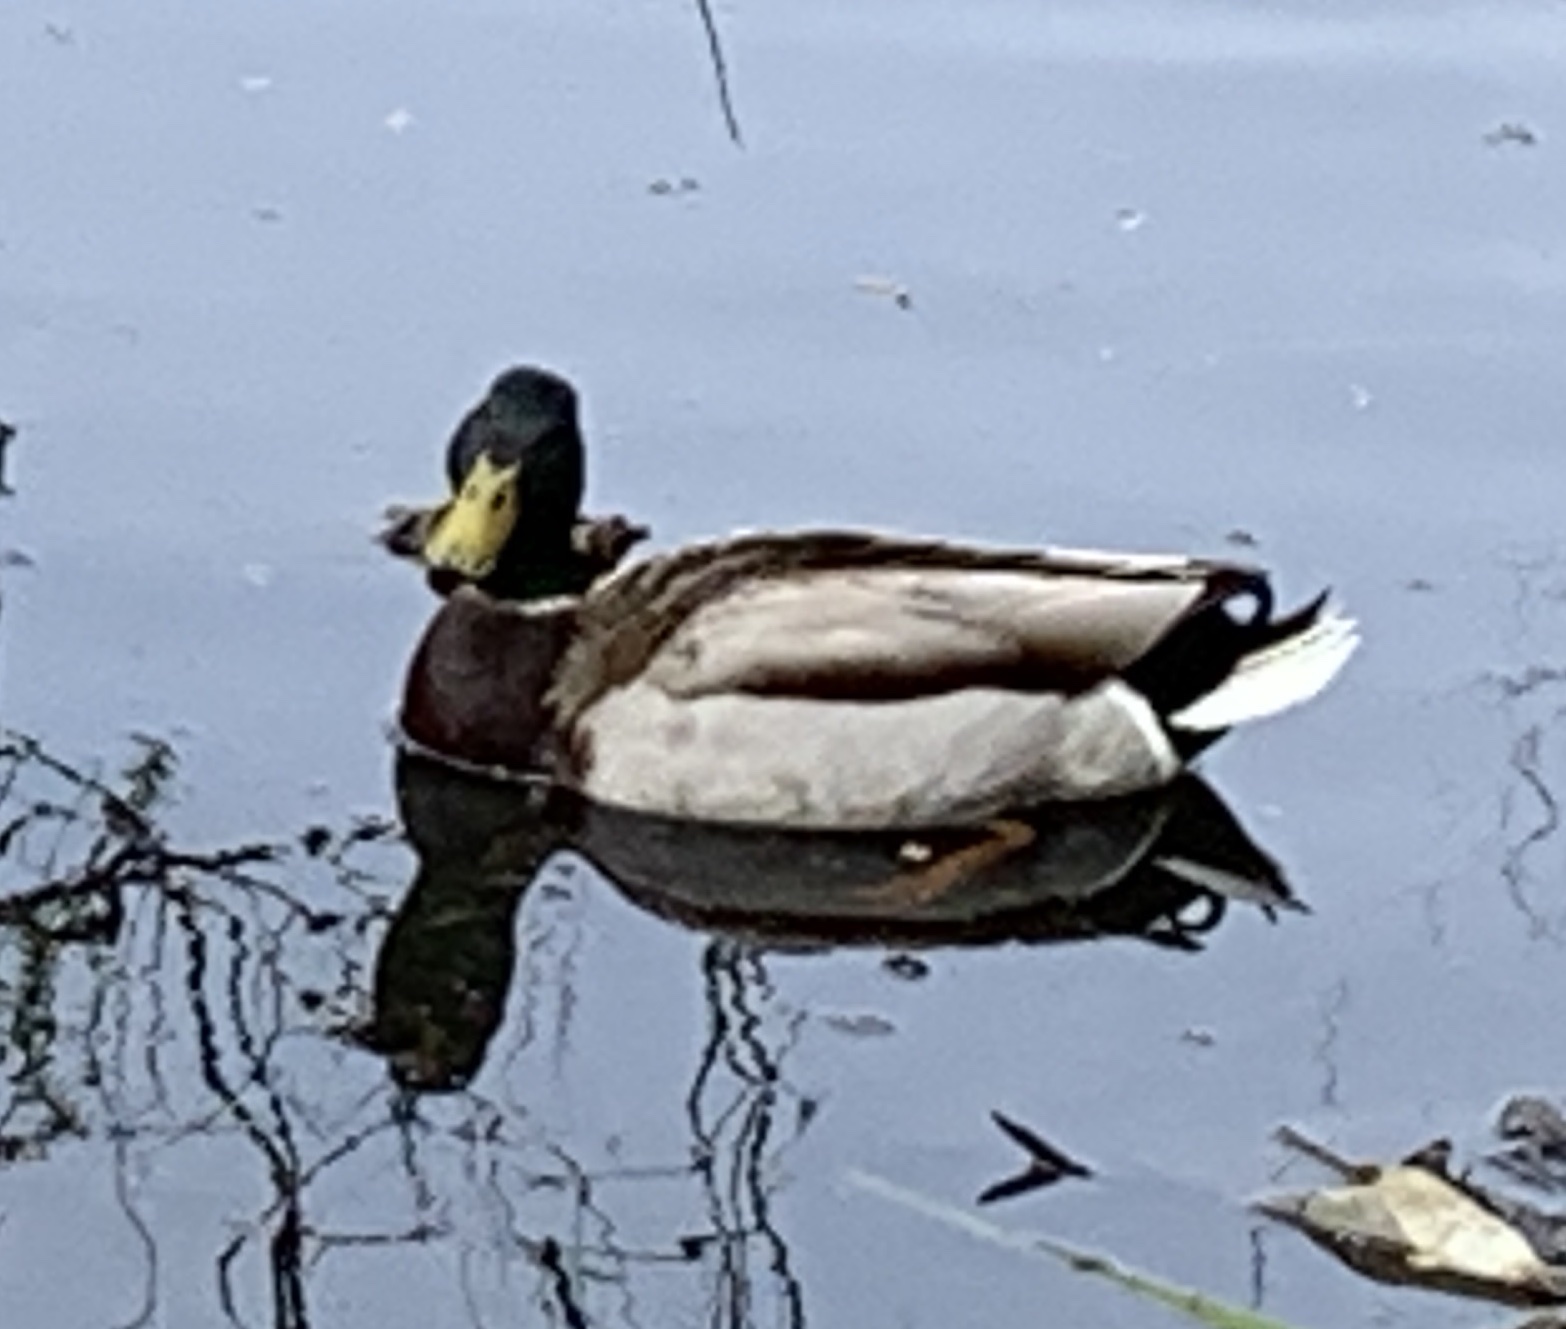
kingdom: Animalia
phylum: Chordata
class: Aves
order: Anseriformes
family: Anatidae
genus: Anas
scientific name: Anas platyrhynchos
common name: Mallard
